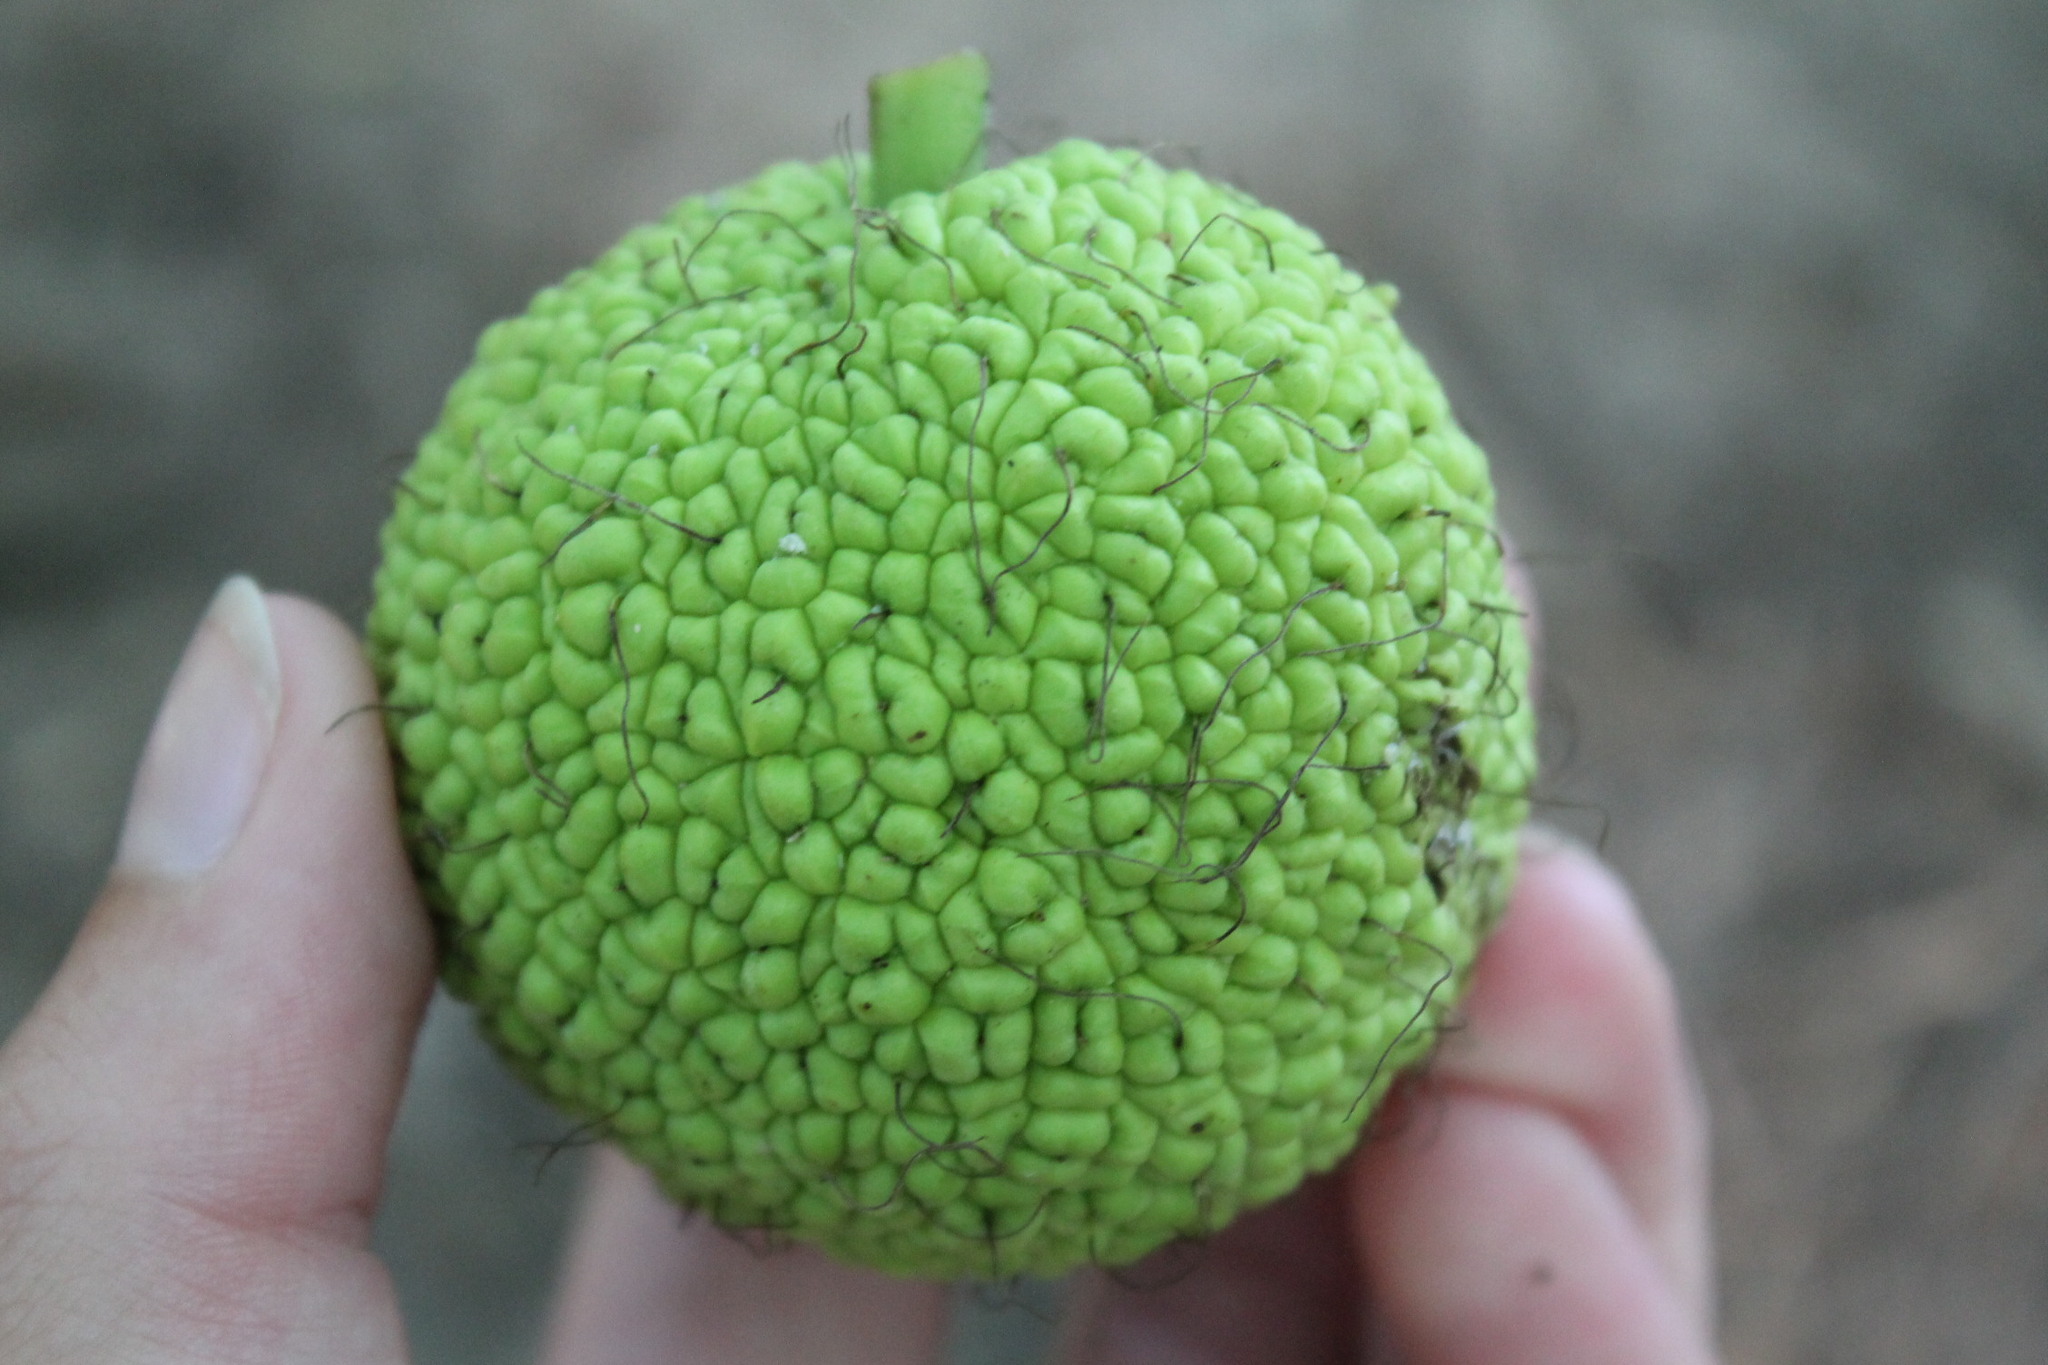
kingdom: Plantae
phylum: Tracheophyta
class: Magnoliopsida
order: Rosales
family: Moraceae
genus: Maclura
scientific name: Maclura pomifera
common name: Osage-orange
